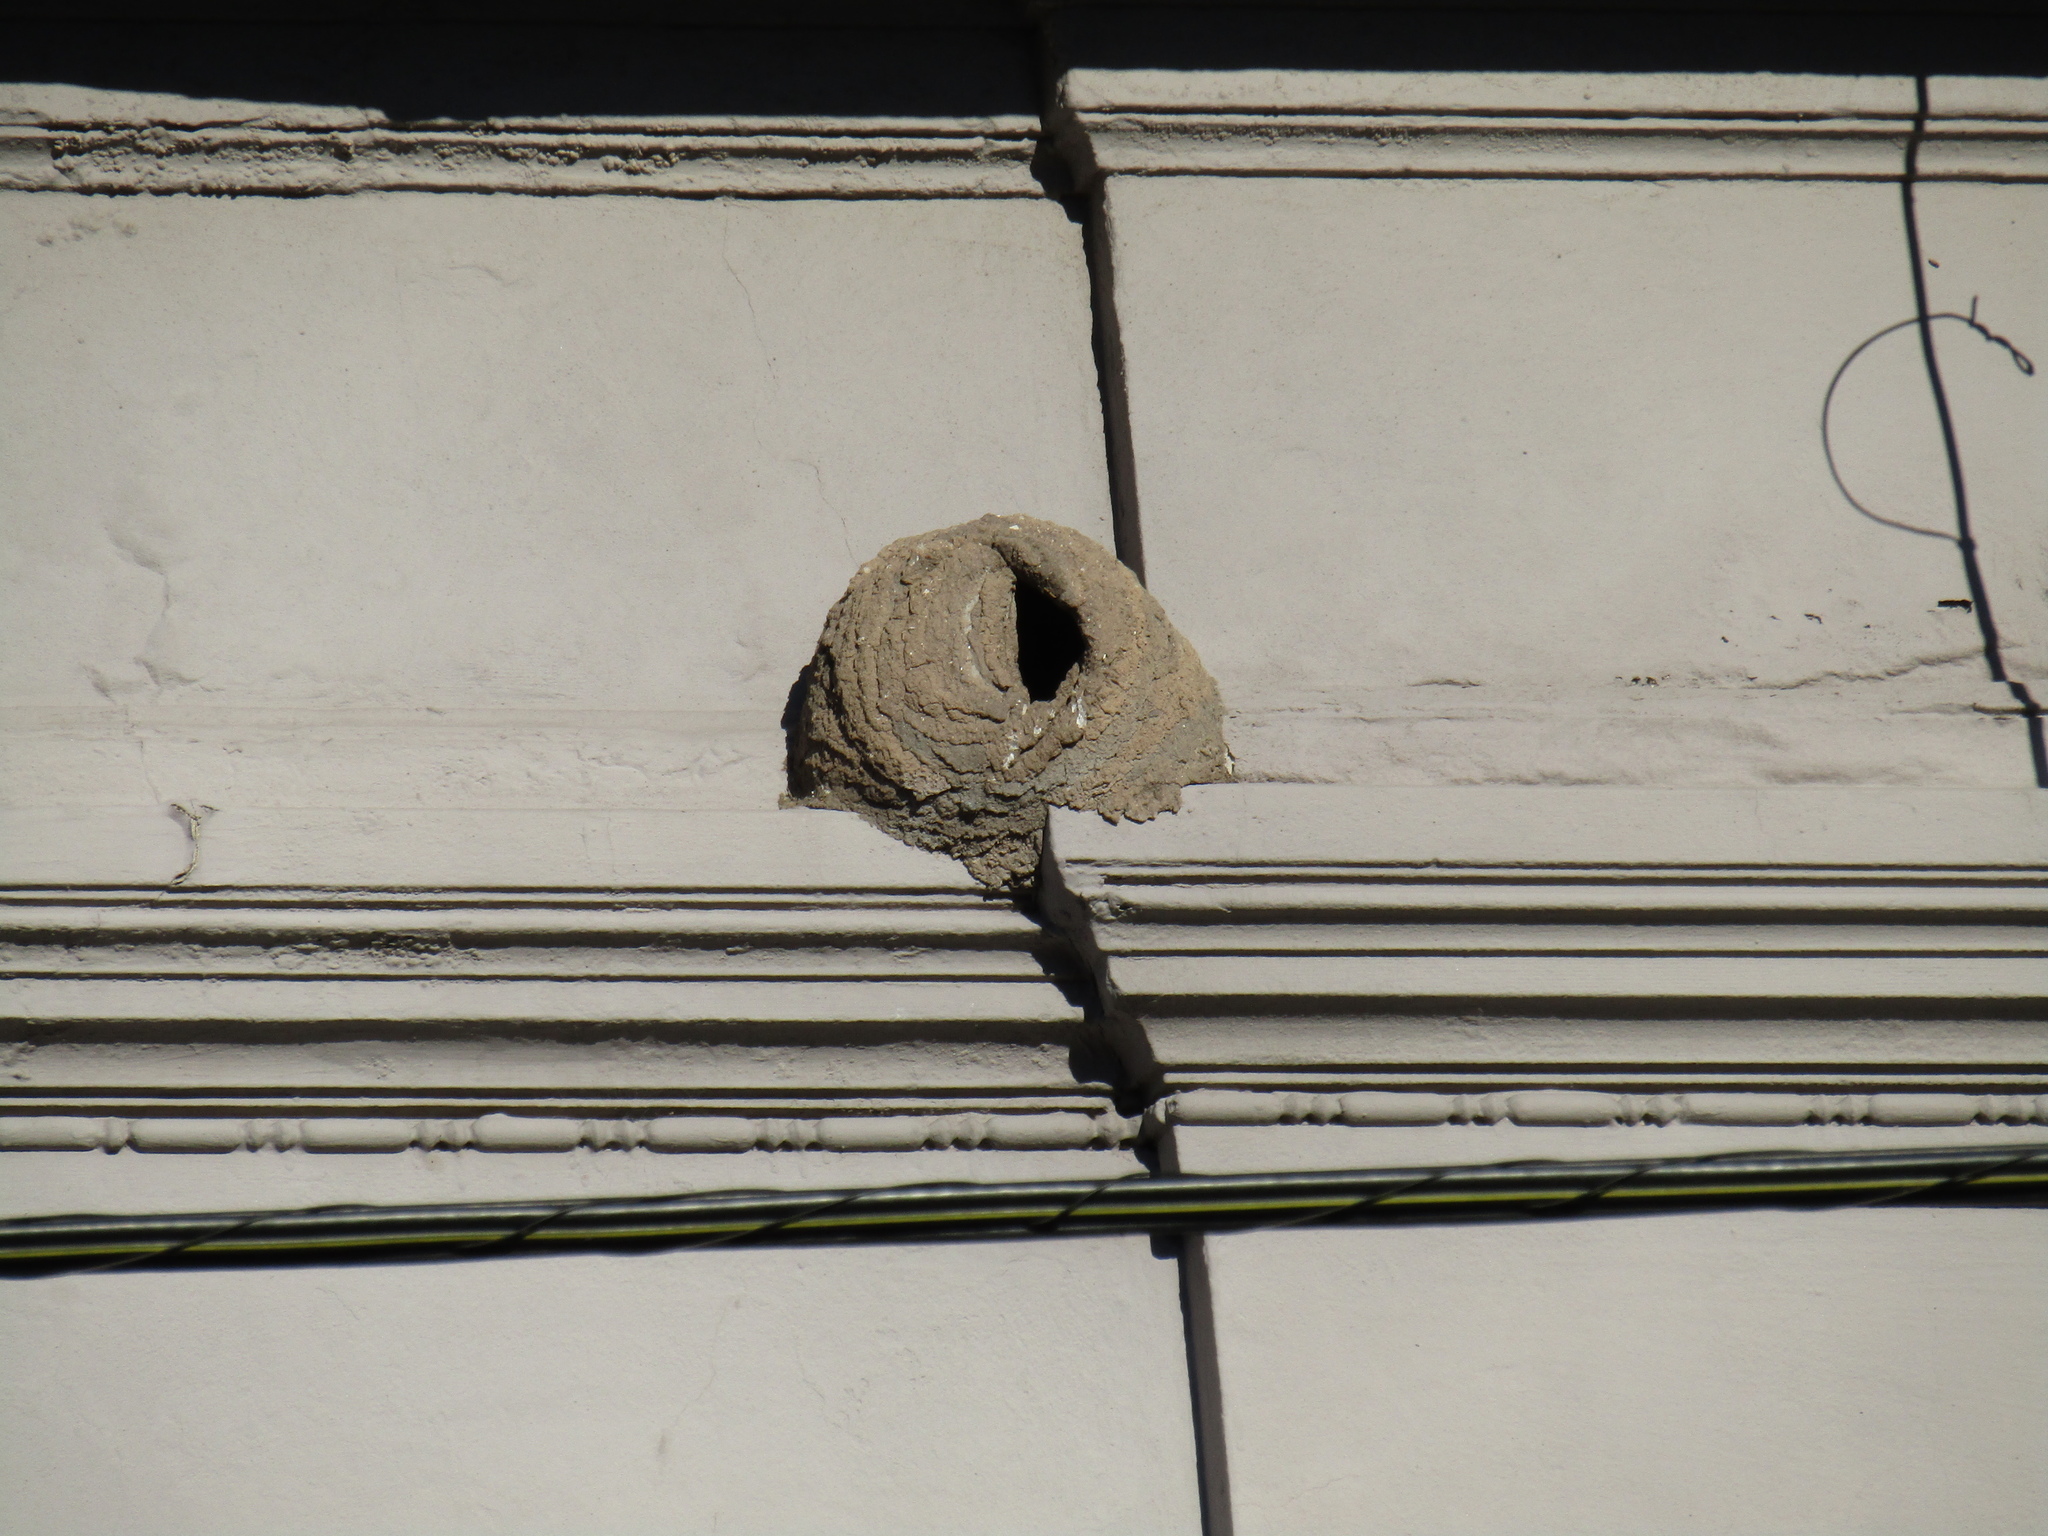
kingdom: Animalia
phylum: Chordata
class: Aves
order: Passeriformes
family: Furnariidae
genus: Furnarius
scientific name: Furnarius rufus
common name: Rufous hornero
